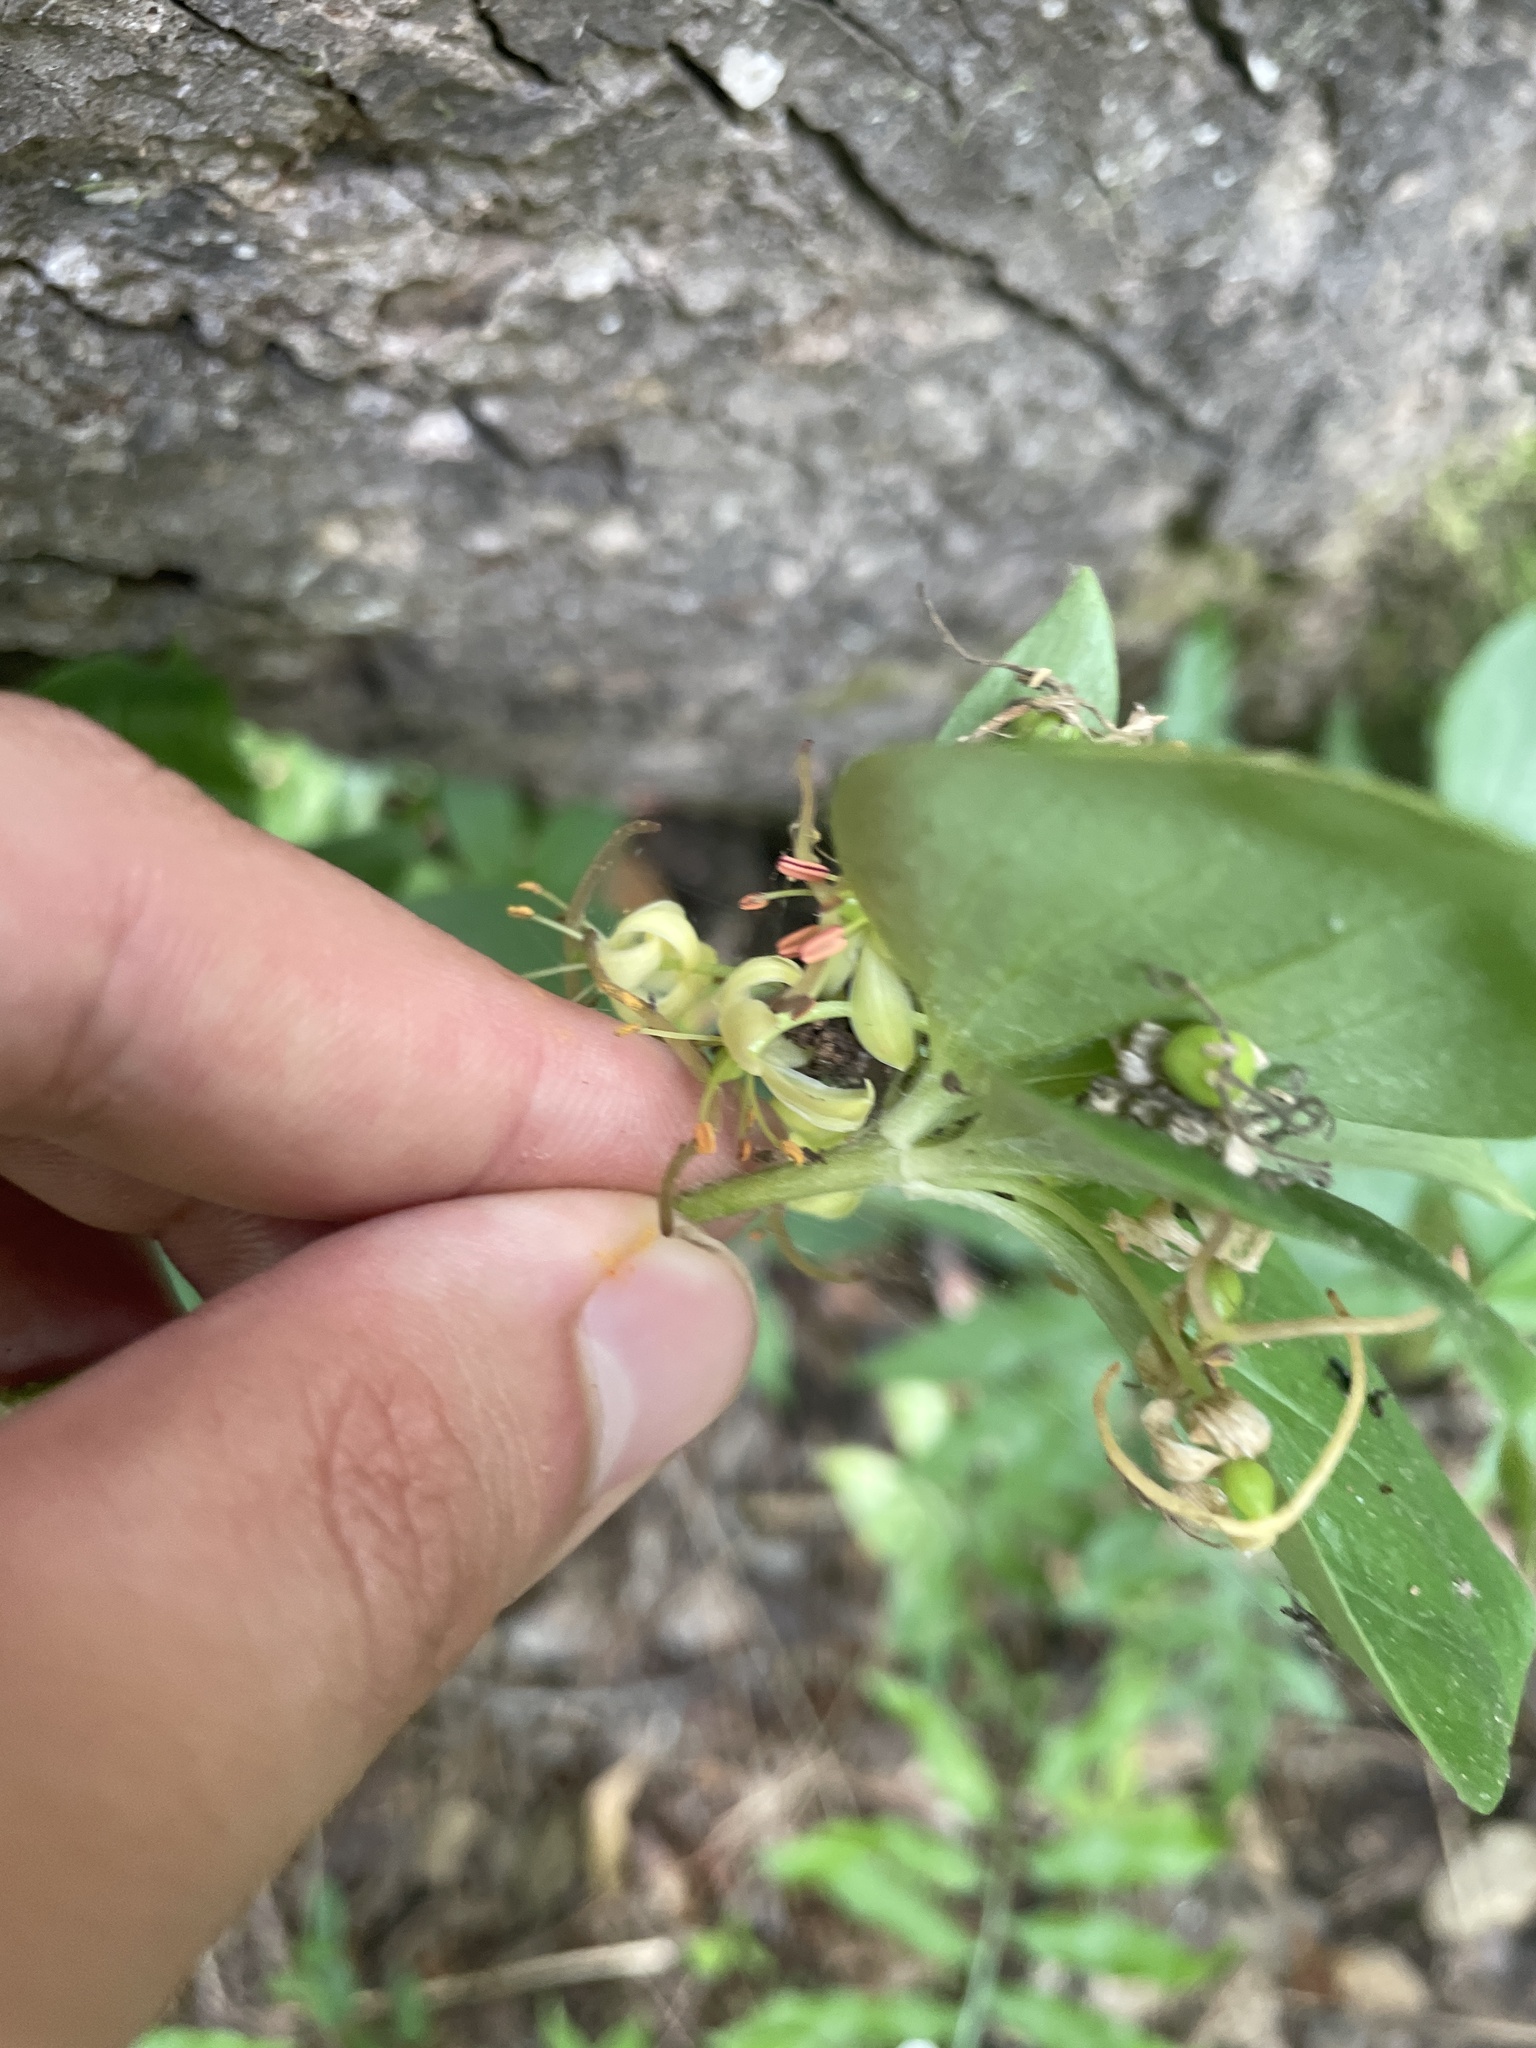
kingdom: Plantae
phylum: Tracheophyta
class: Liliopsida
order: Liliales
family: Liliaceae
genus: Medeola
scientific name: Medeola virginiana
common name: Indian cucumber-root
